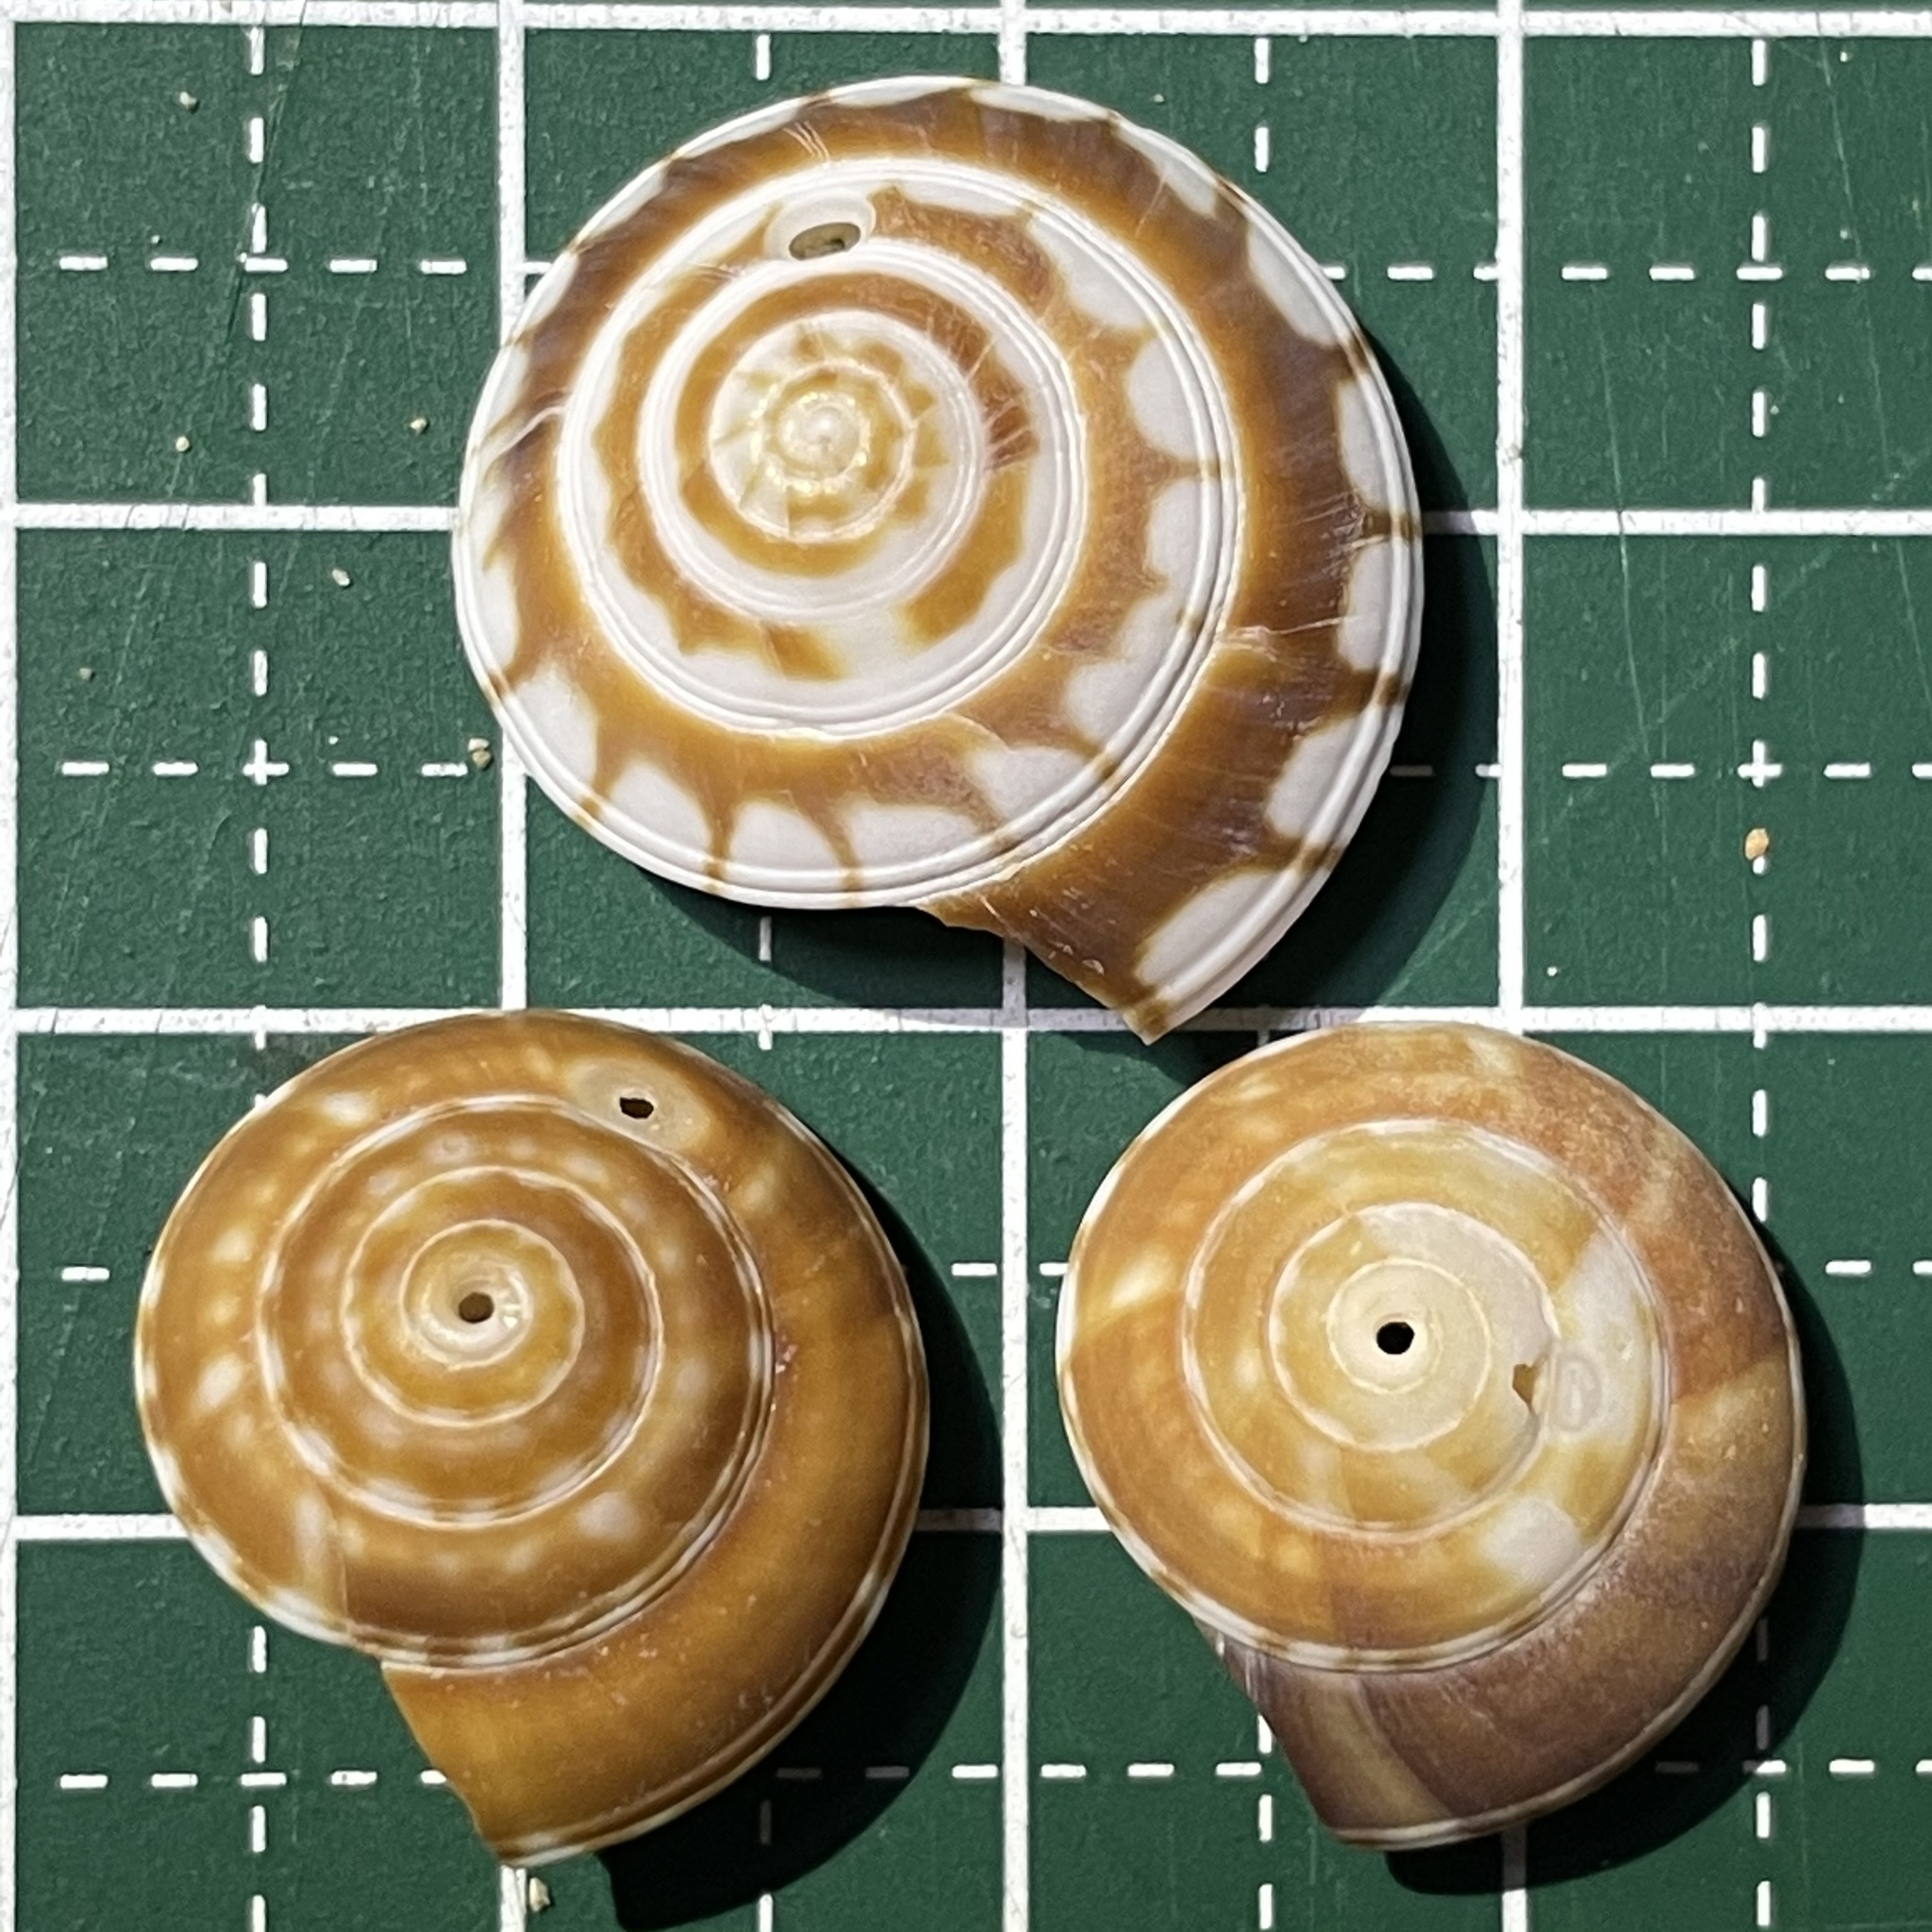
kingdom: Animalia
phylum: Mollusca
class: Gastropoda
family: Architectonicidae
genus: Psilaxis
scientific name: Psilaxis radiatus
